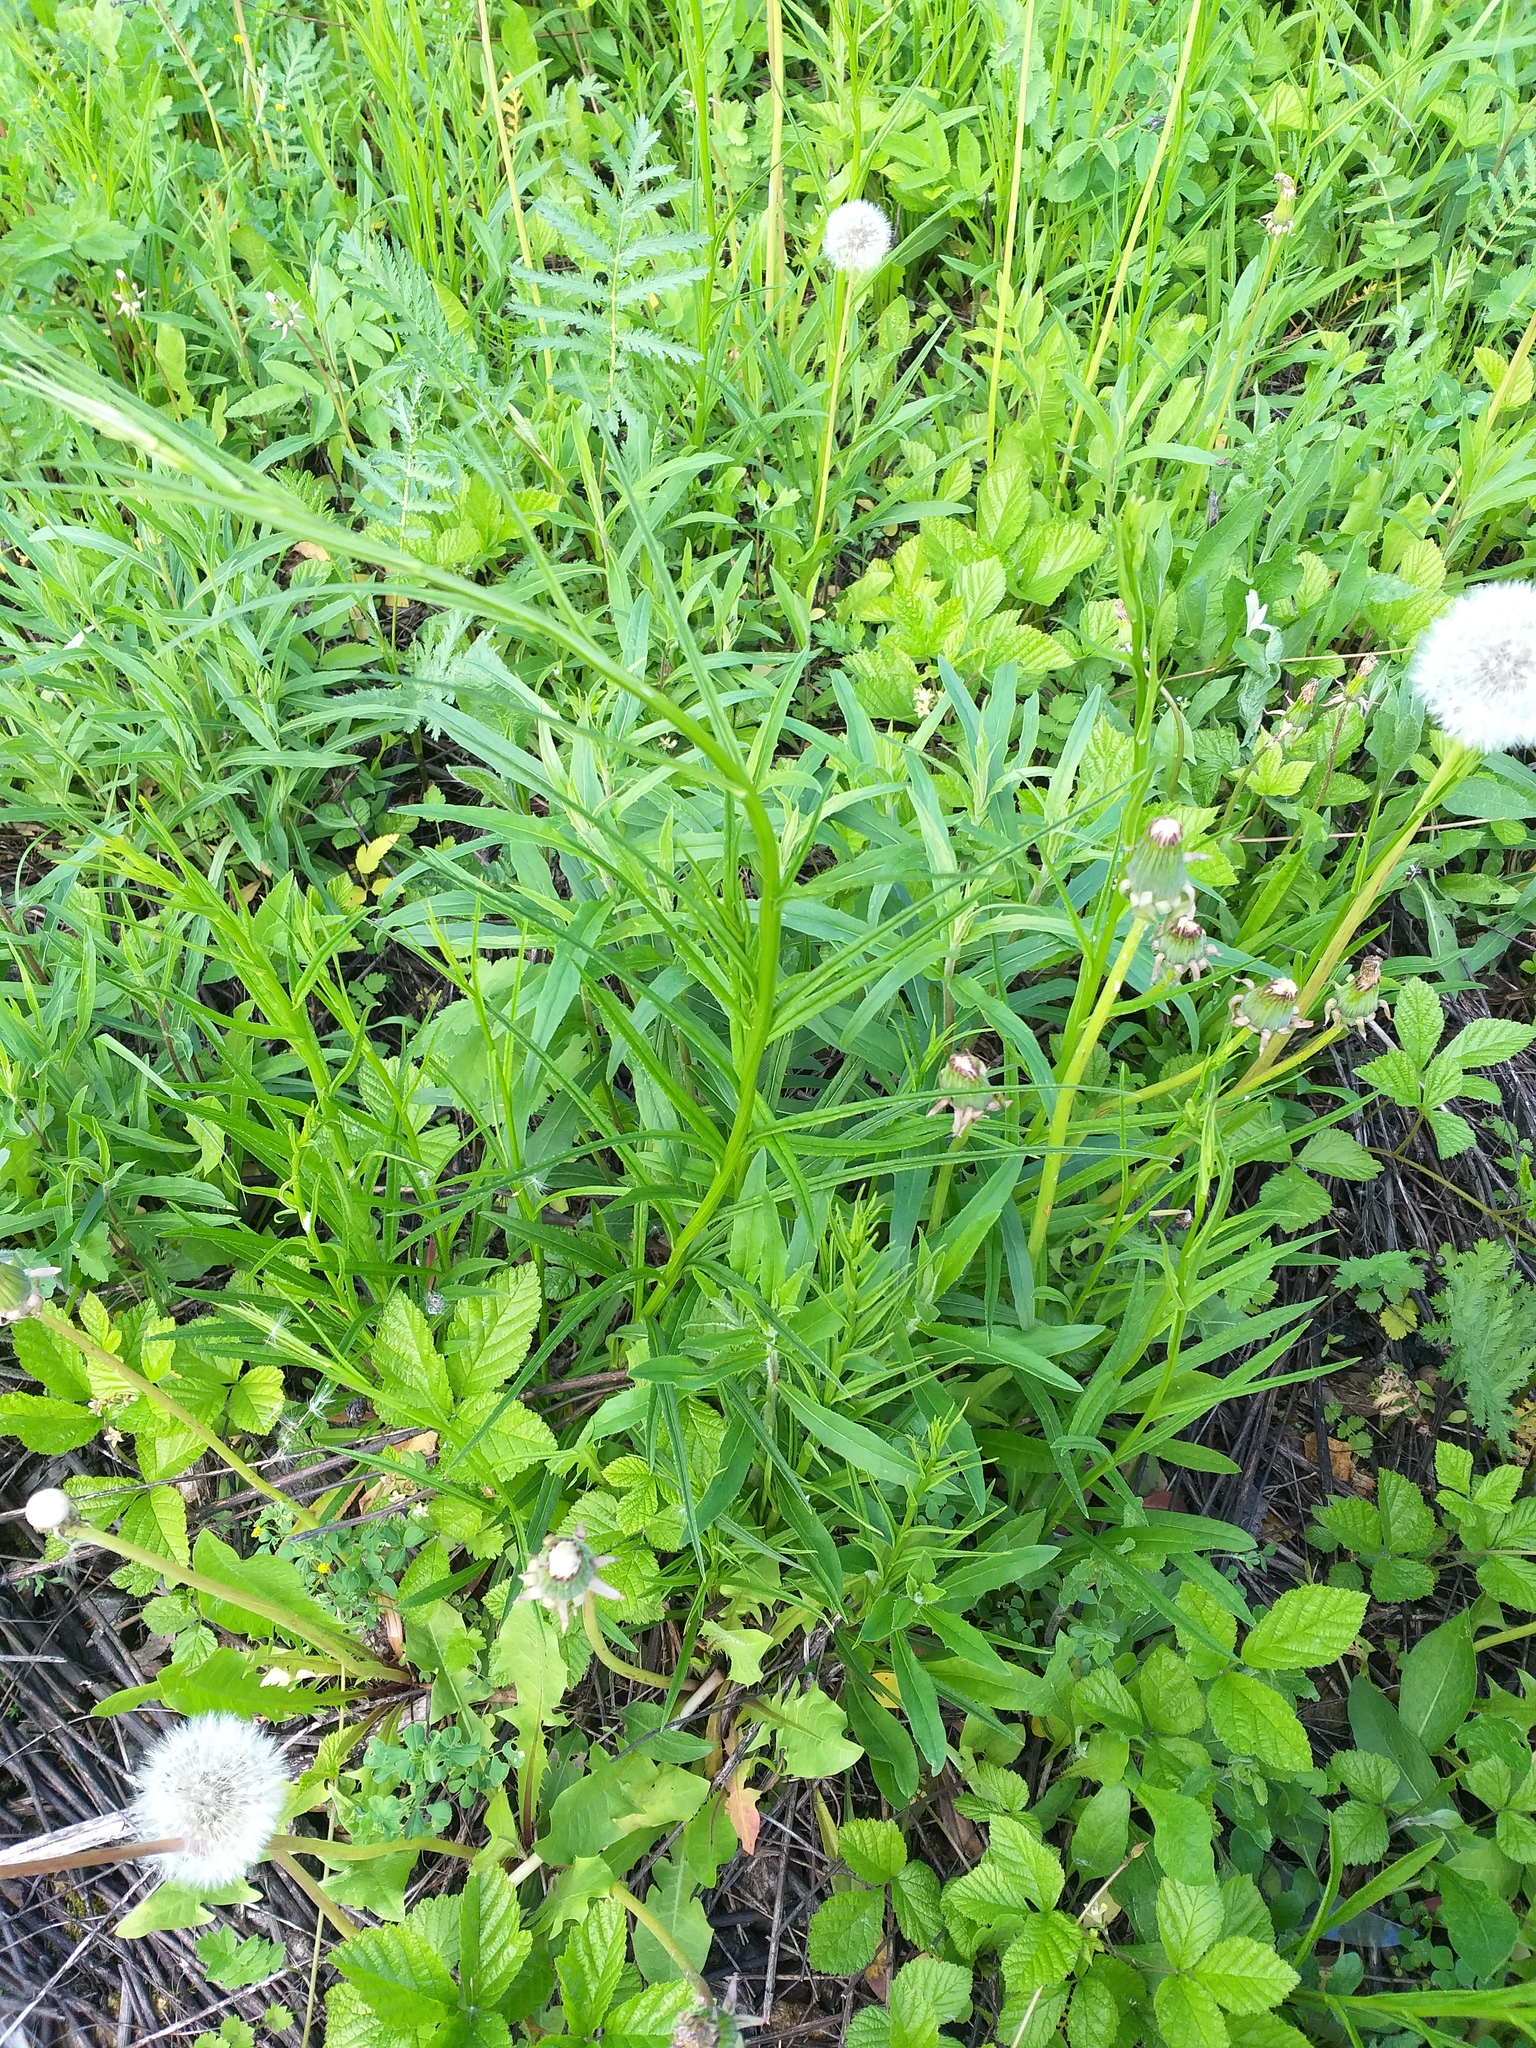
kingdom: Plantae
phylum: Tracheophyta
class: Magnoliopsida
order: Asterales
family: Campanulaceae
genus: Campanula
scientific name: Campanula persicifolia
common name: Peach-leaved bellflower
